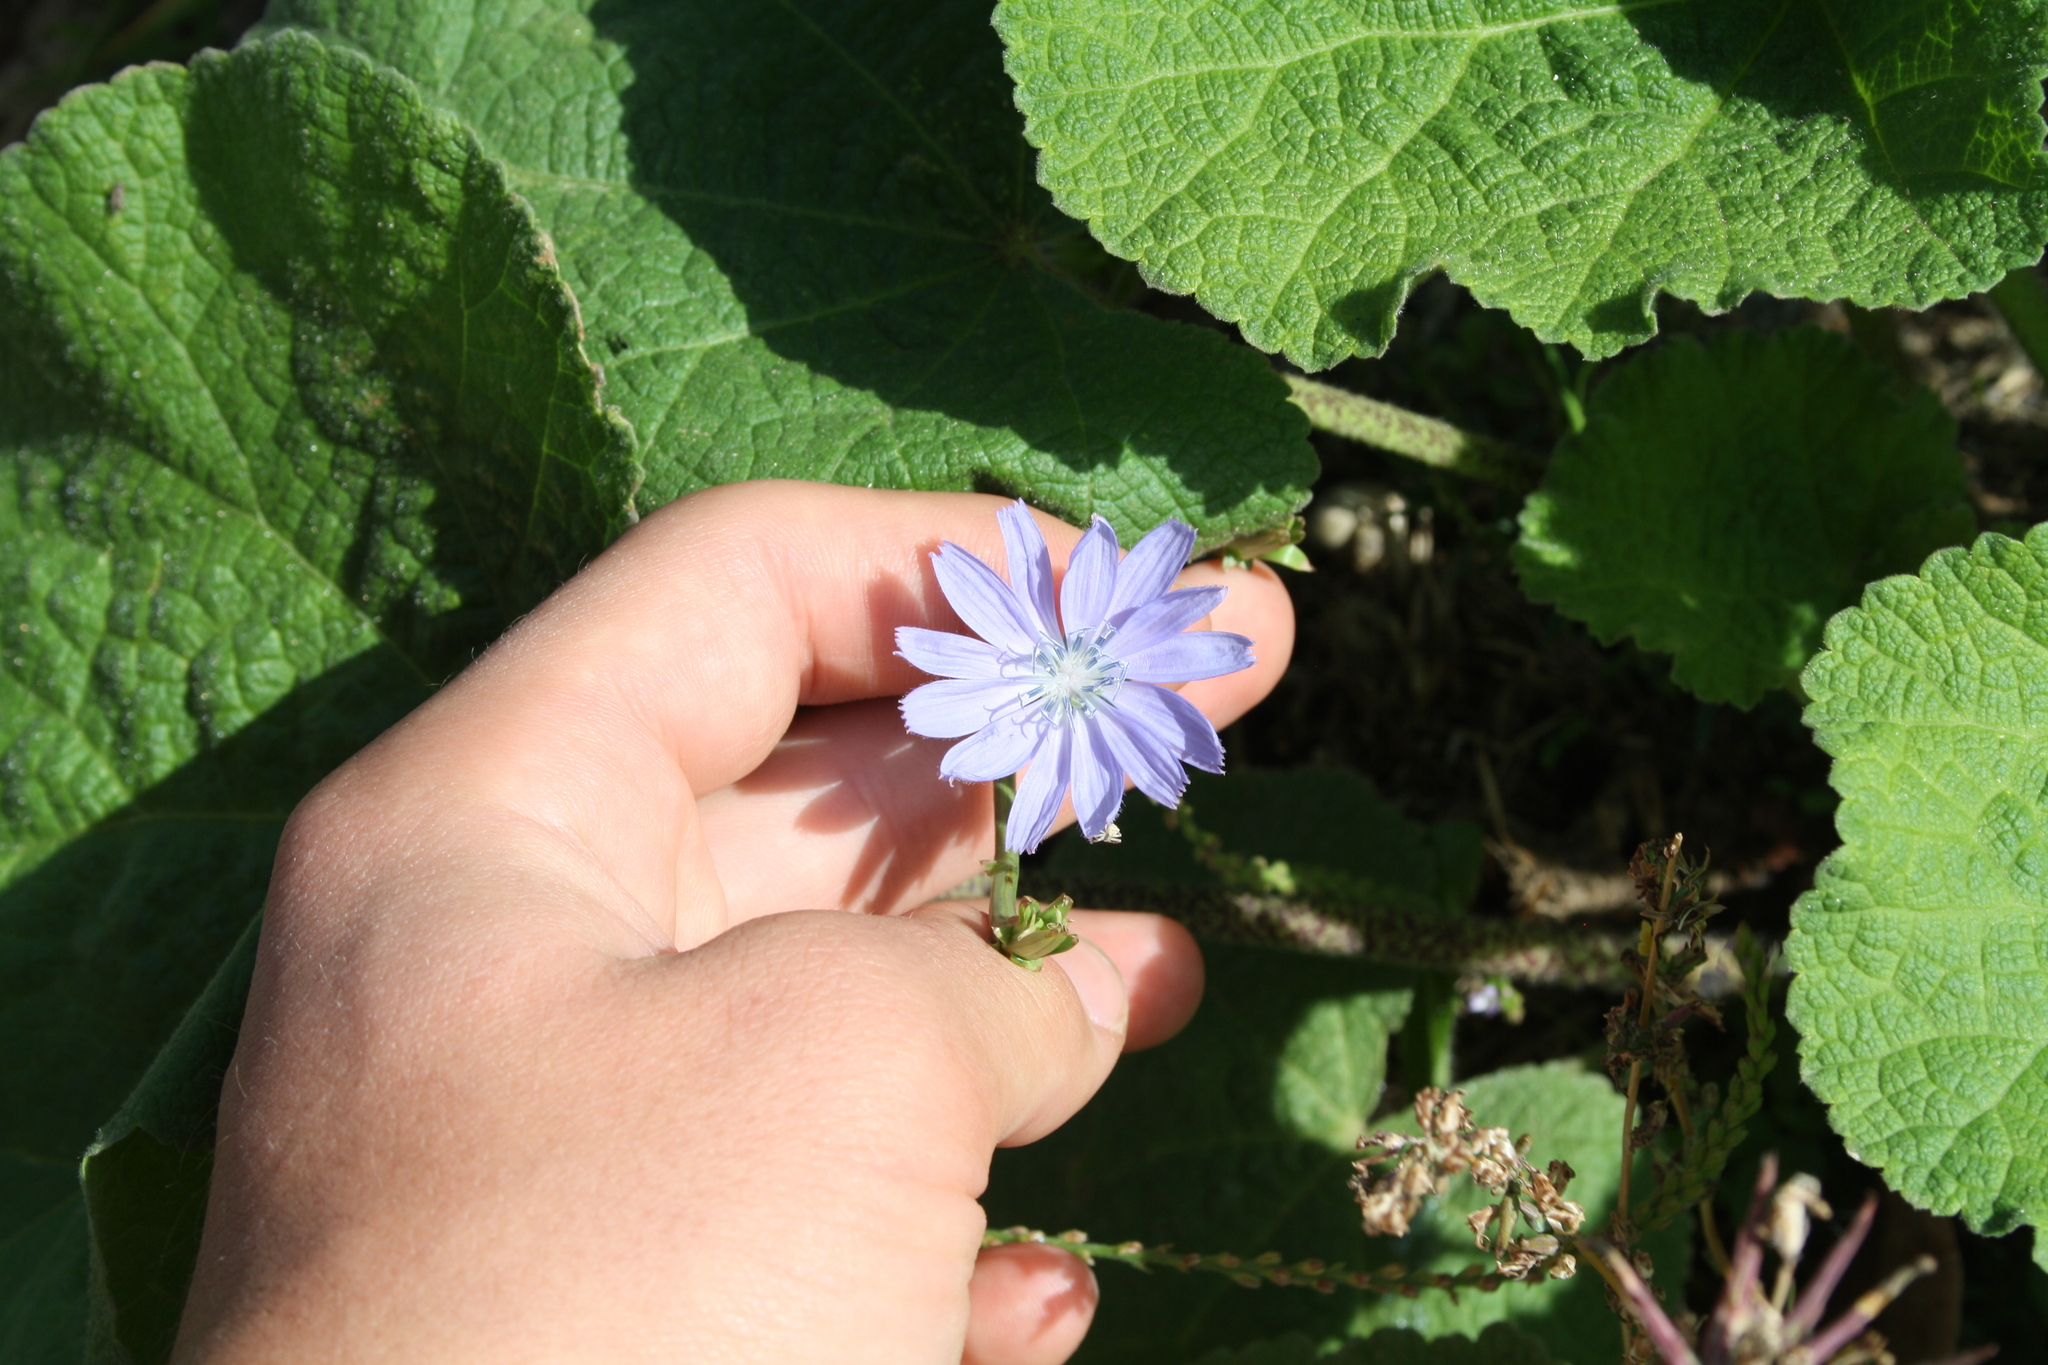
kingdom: Plantae
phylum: Tracheophyta
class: Magnoliopsida
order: Asterales
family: Asteraceae
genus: Cichorium
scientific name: Cichorium intybus
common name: Chicory
